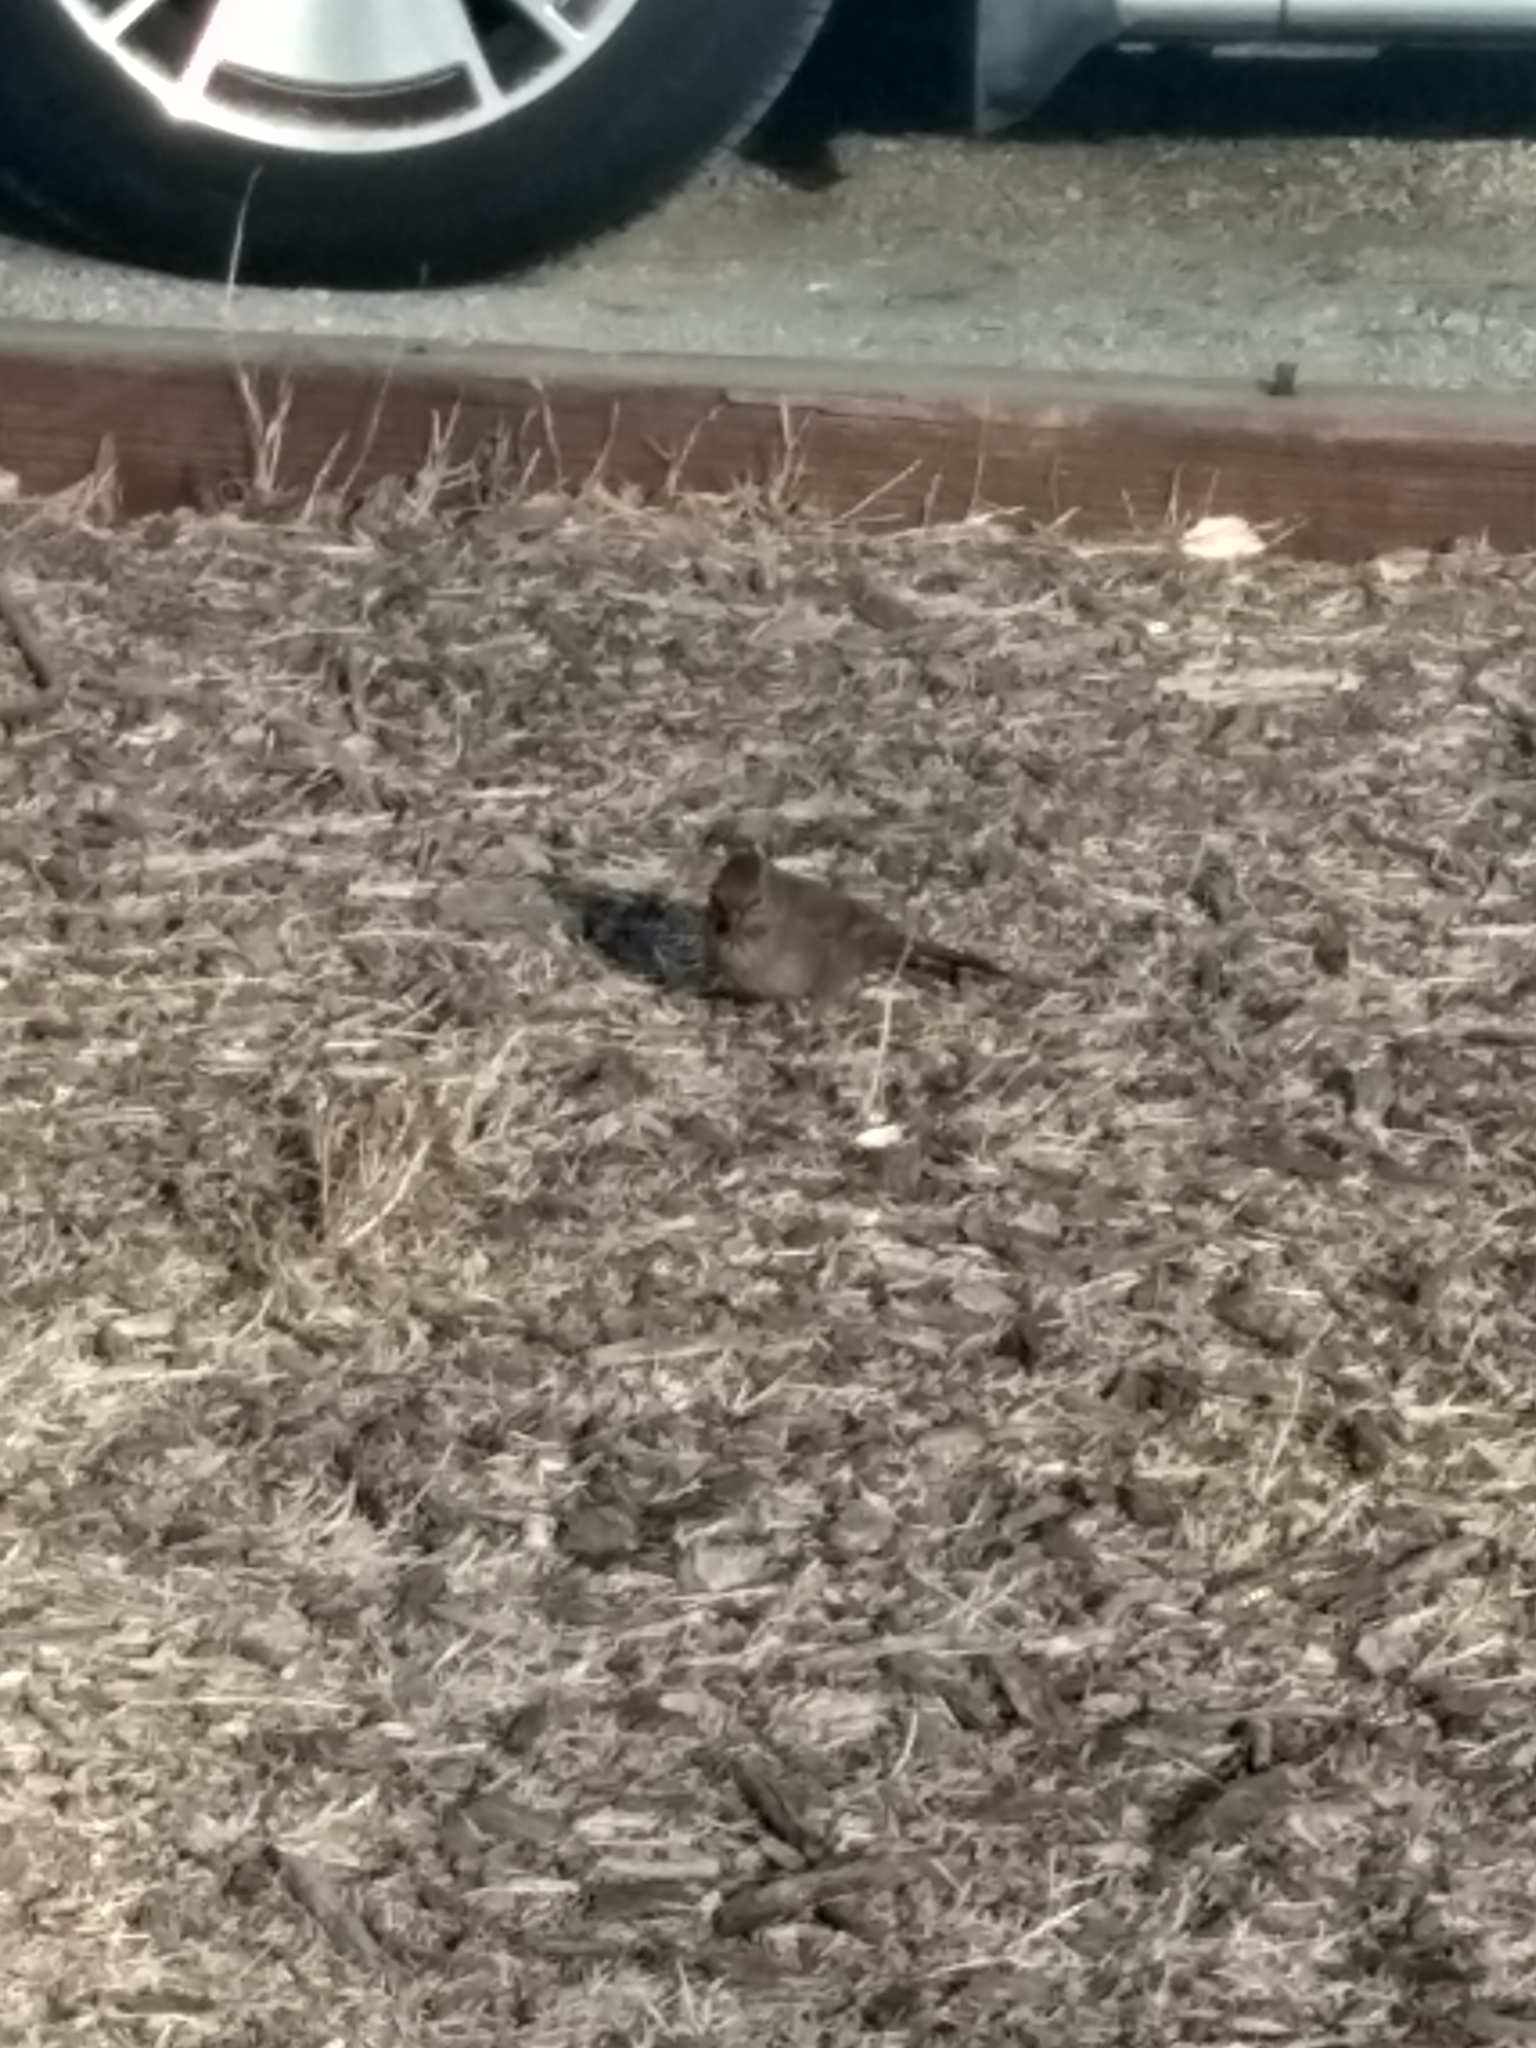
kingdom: Animalia
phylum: Chordata
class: Aves
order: Passeriformes
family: Passerellidae
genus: Melozone
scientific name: Melozone crissalis
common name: California towhee
